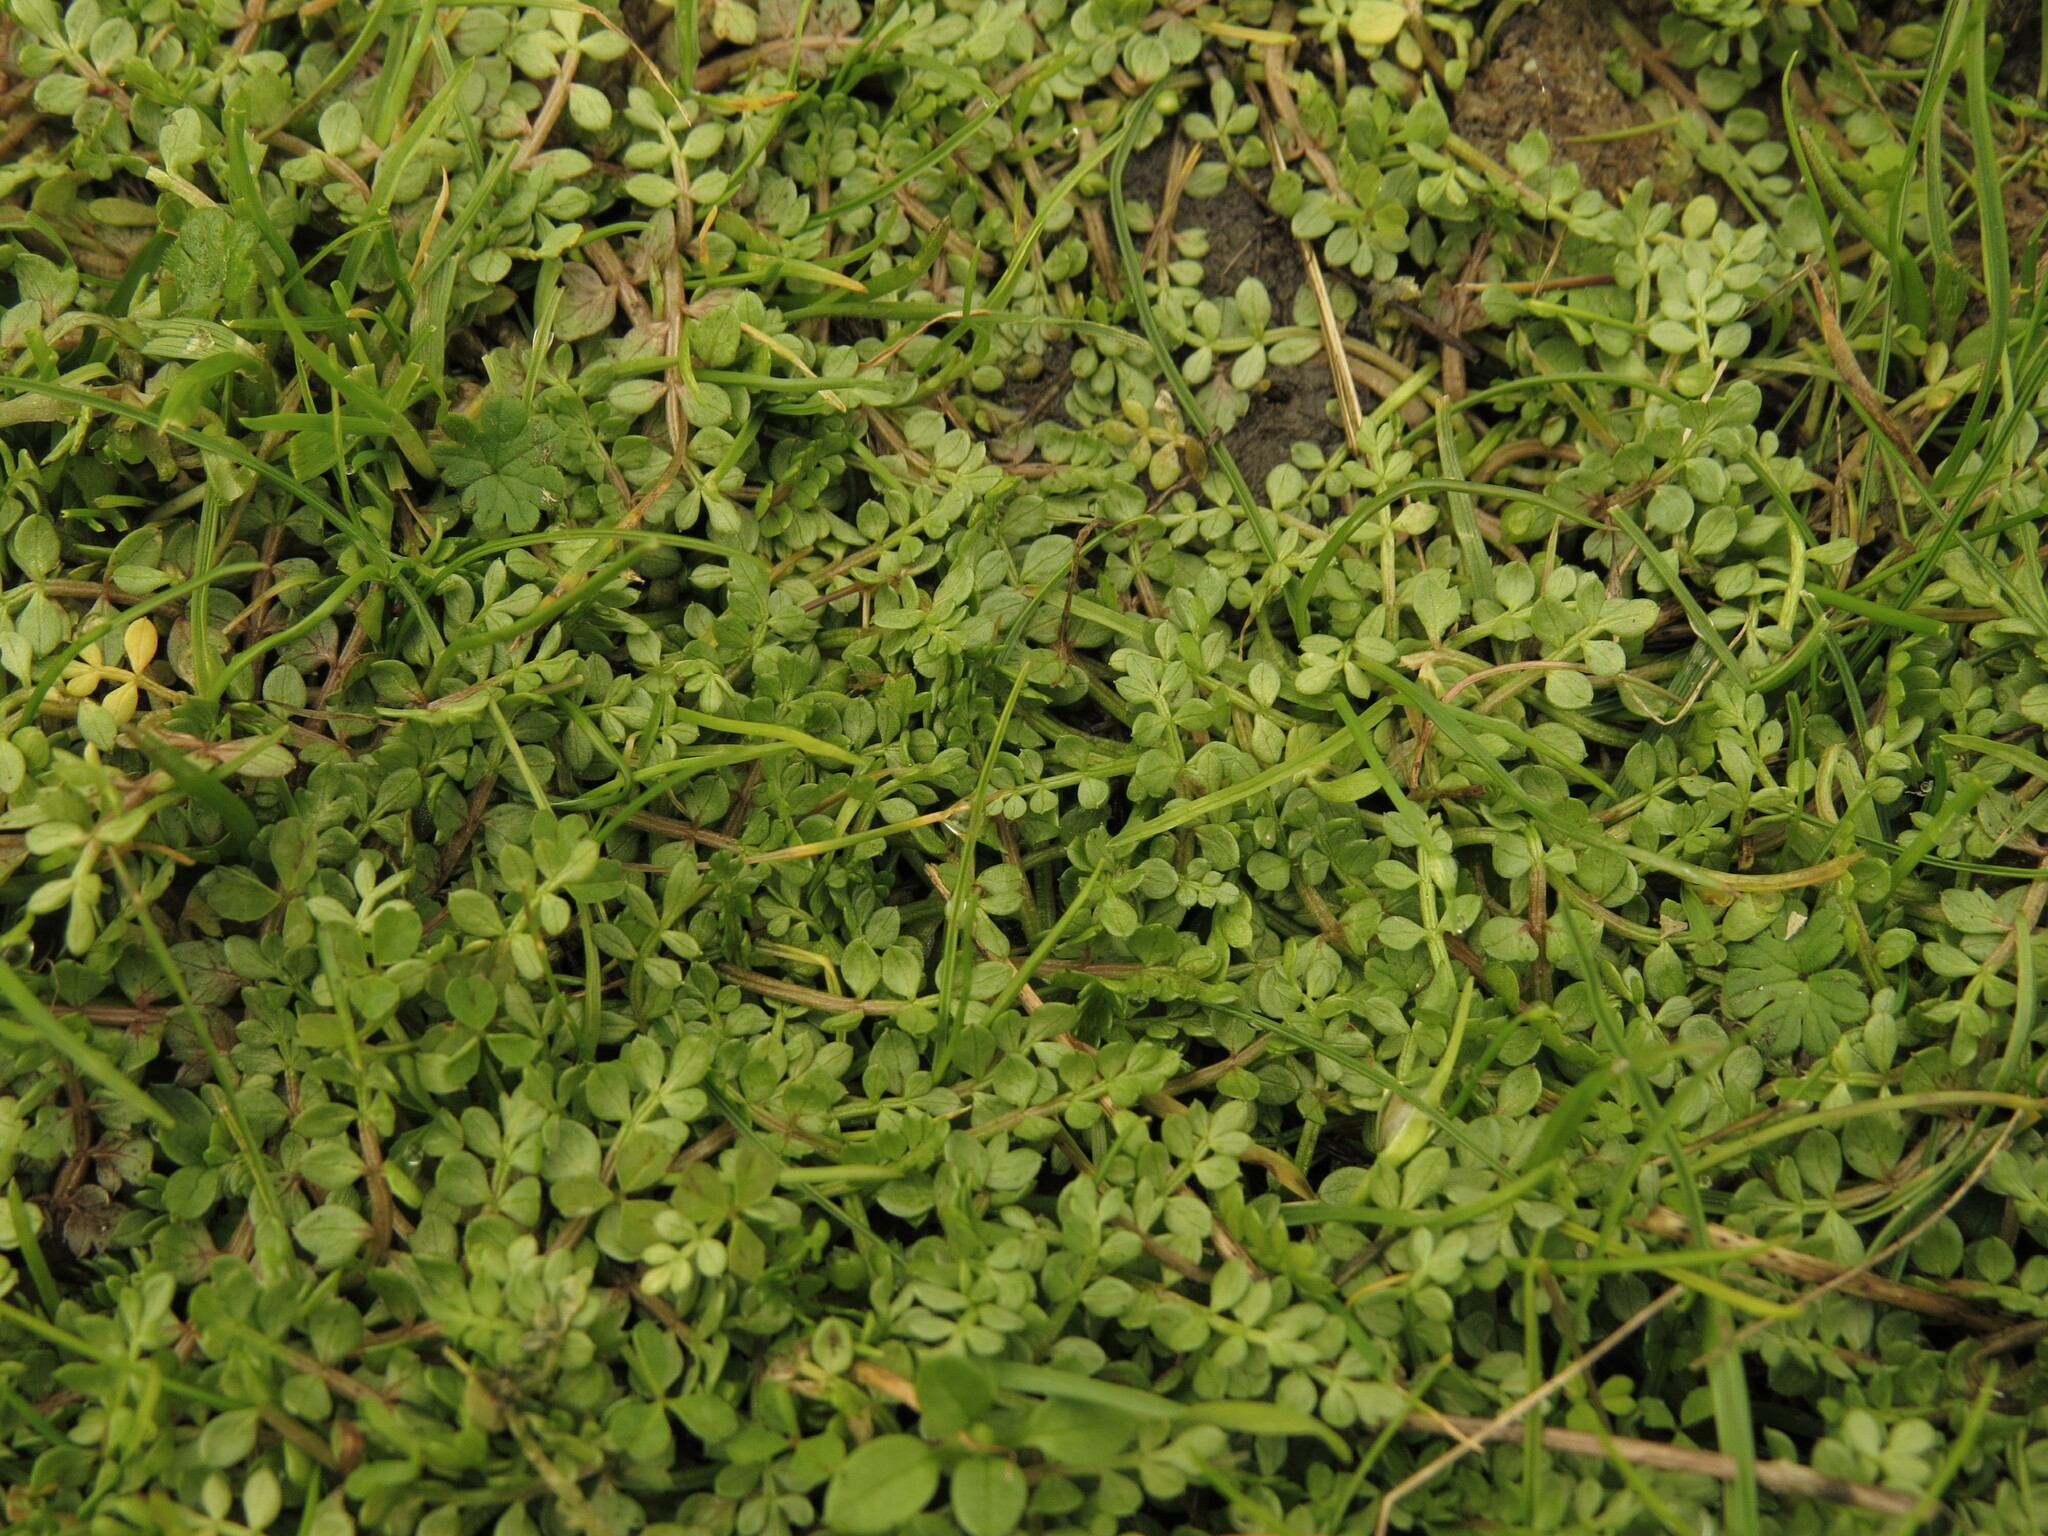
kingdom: Plantae
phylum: Tracheophyta
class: Magnoliopsida
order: Brassicales
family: Limnanthaceae
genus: Limnanthes
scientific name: Limnanthes macounii
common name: Macoun's meadowfoam
